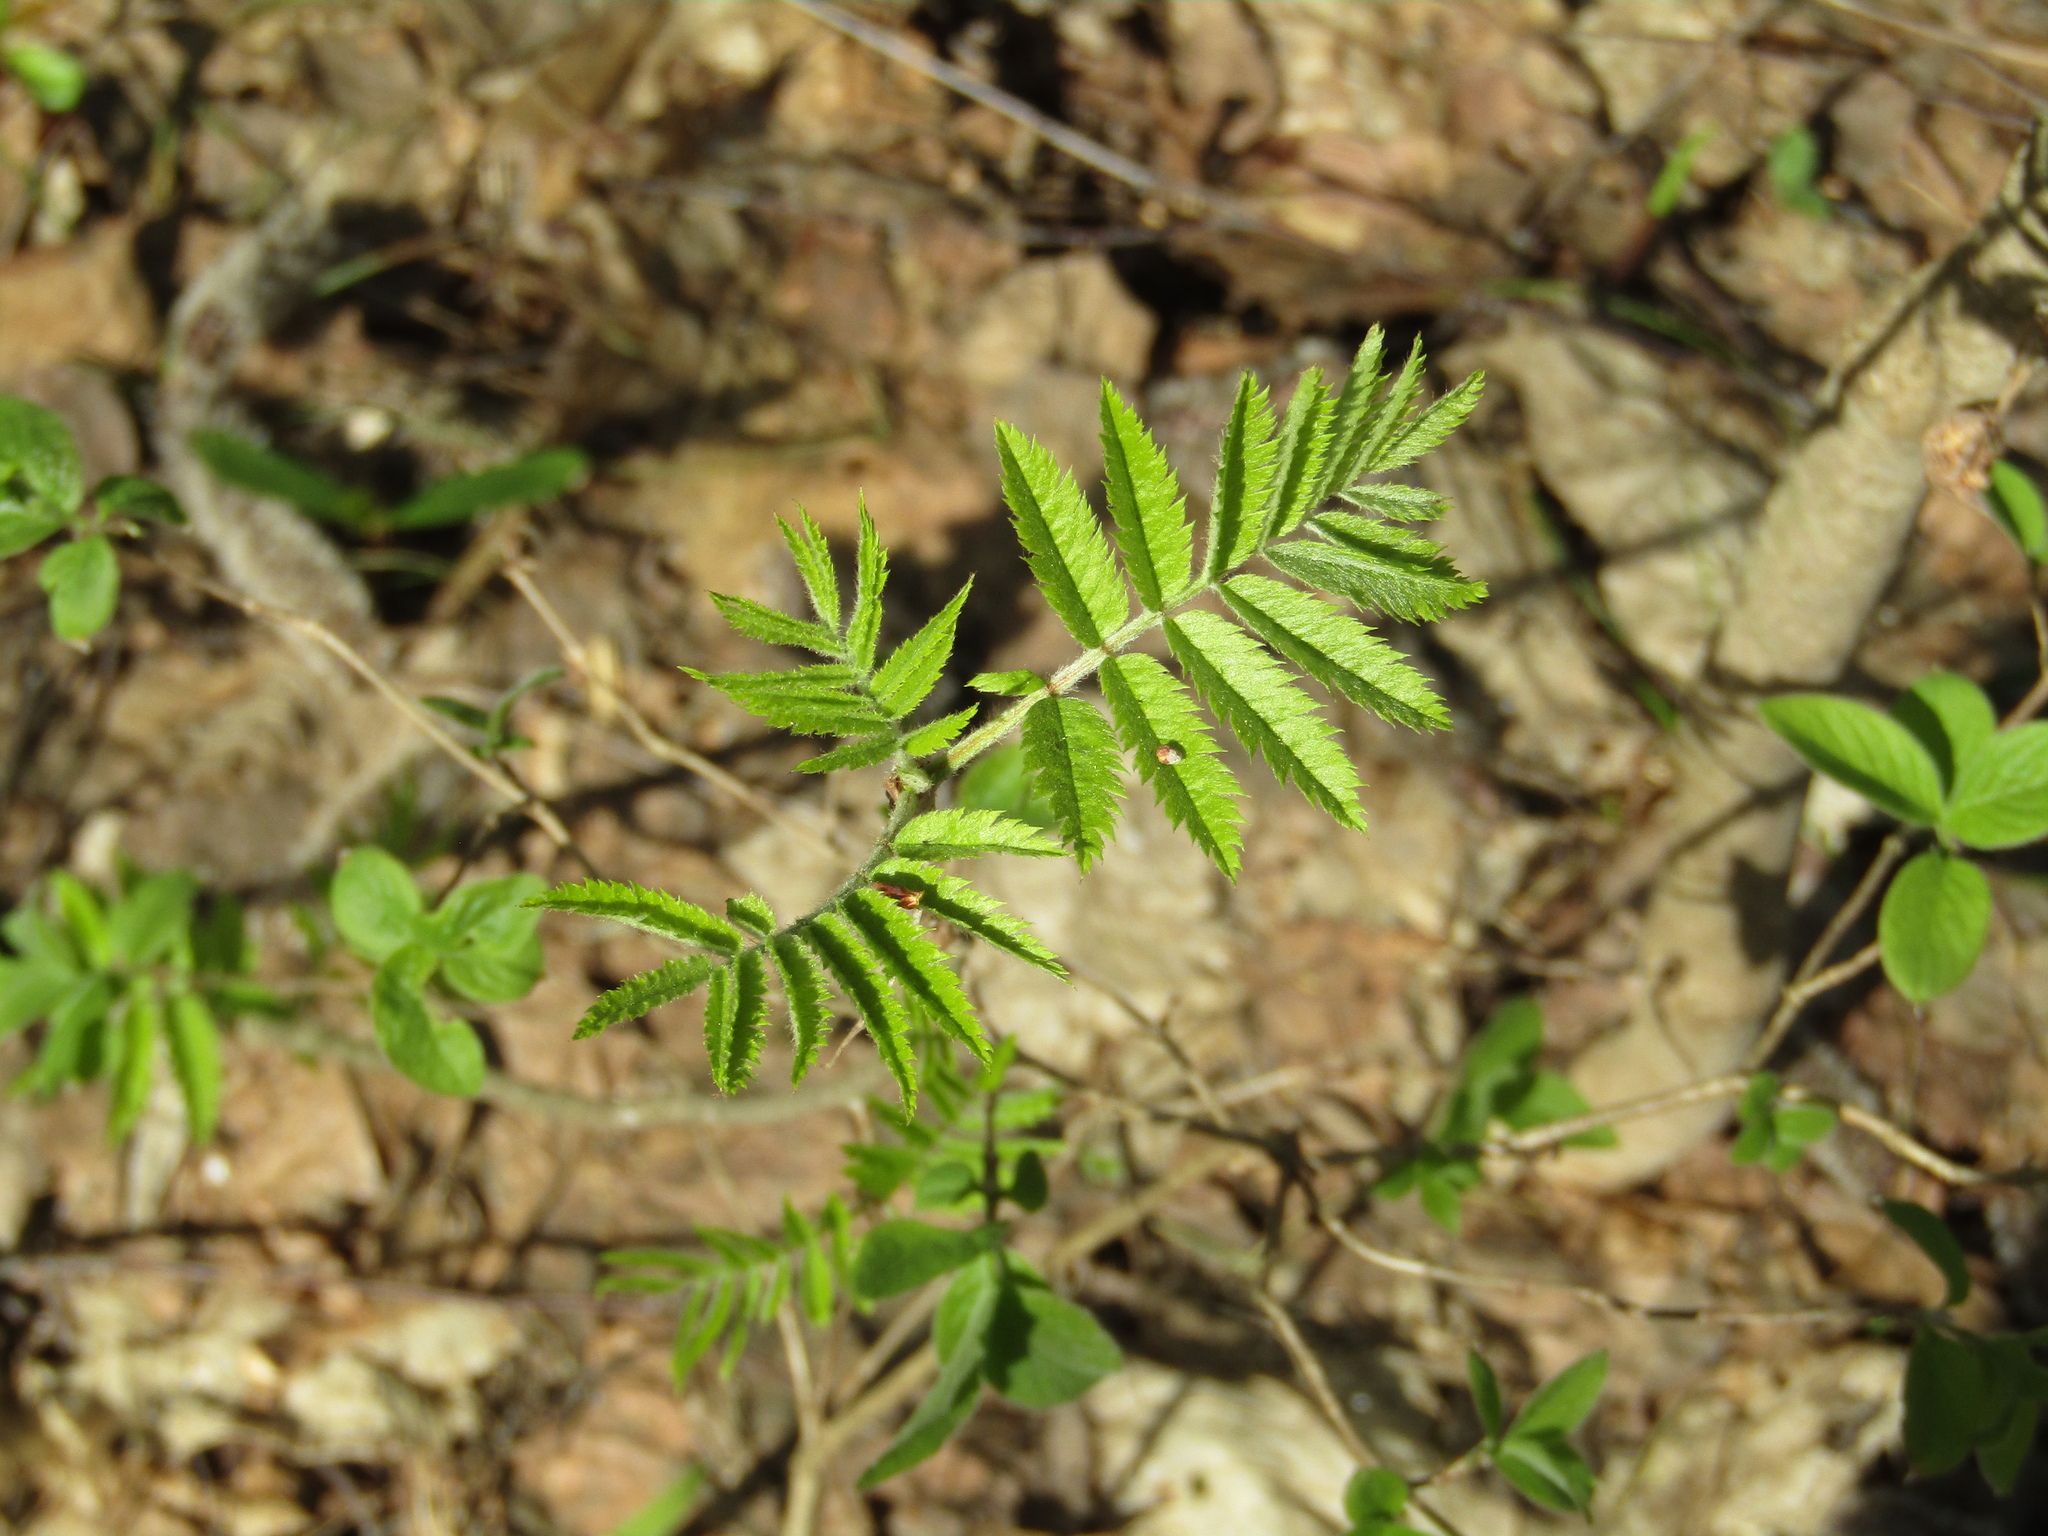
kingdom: Plantae
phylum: Tracheophyta
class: Magnoliopsida
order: Rosales
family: Rosaceae
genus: Sorbus
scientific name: Sorbus aucuparia
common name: Rowan
